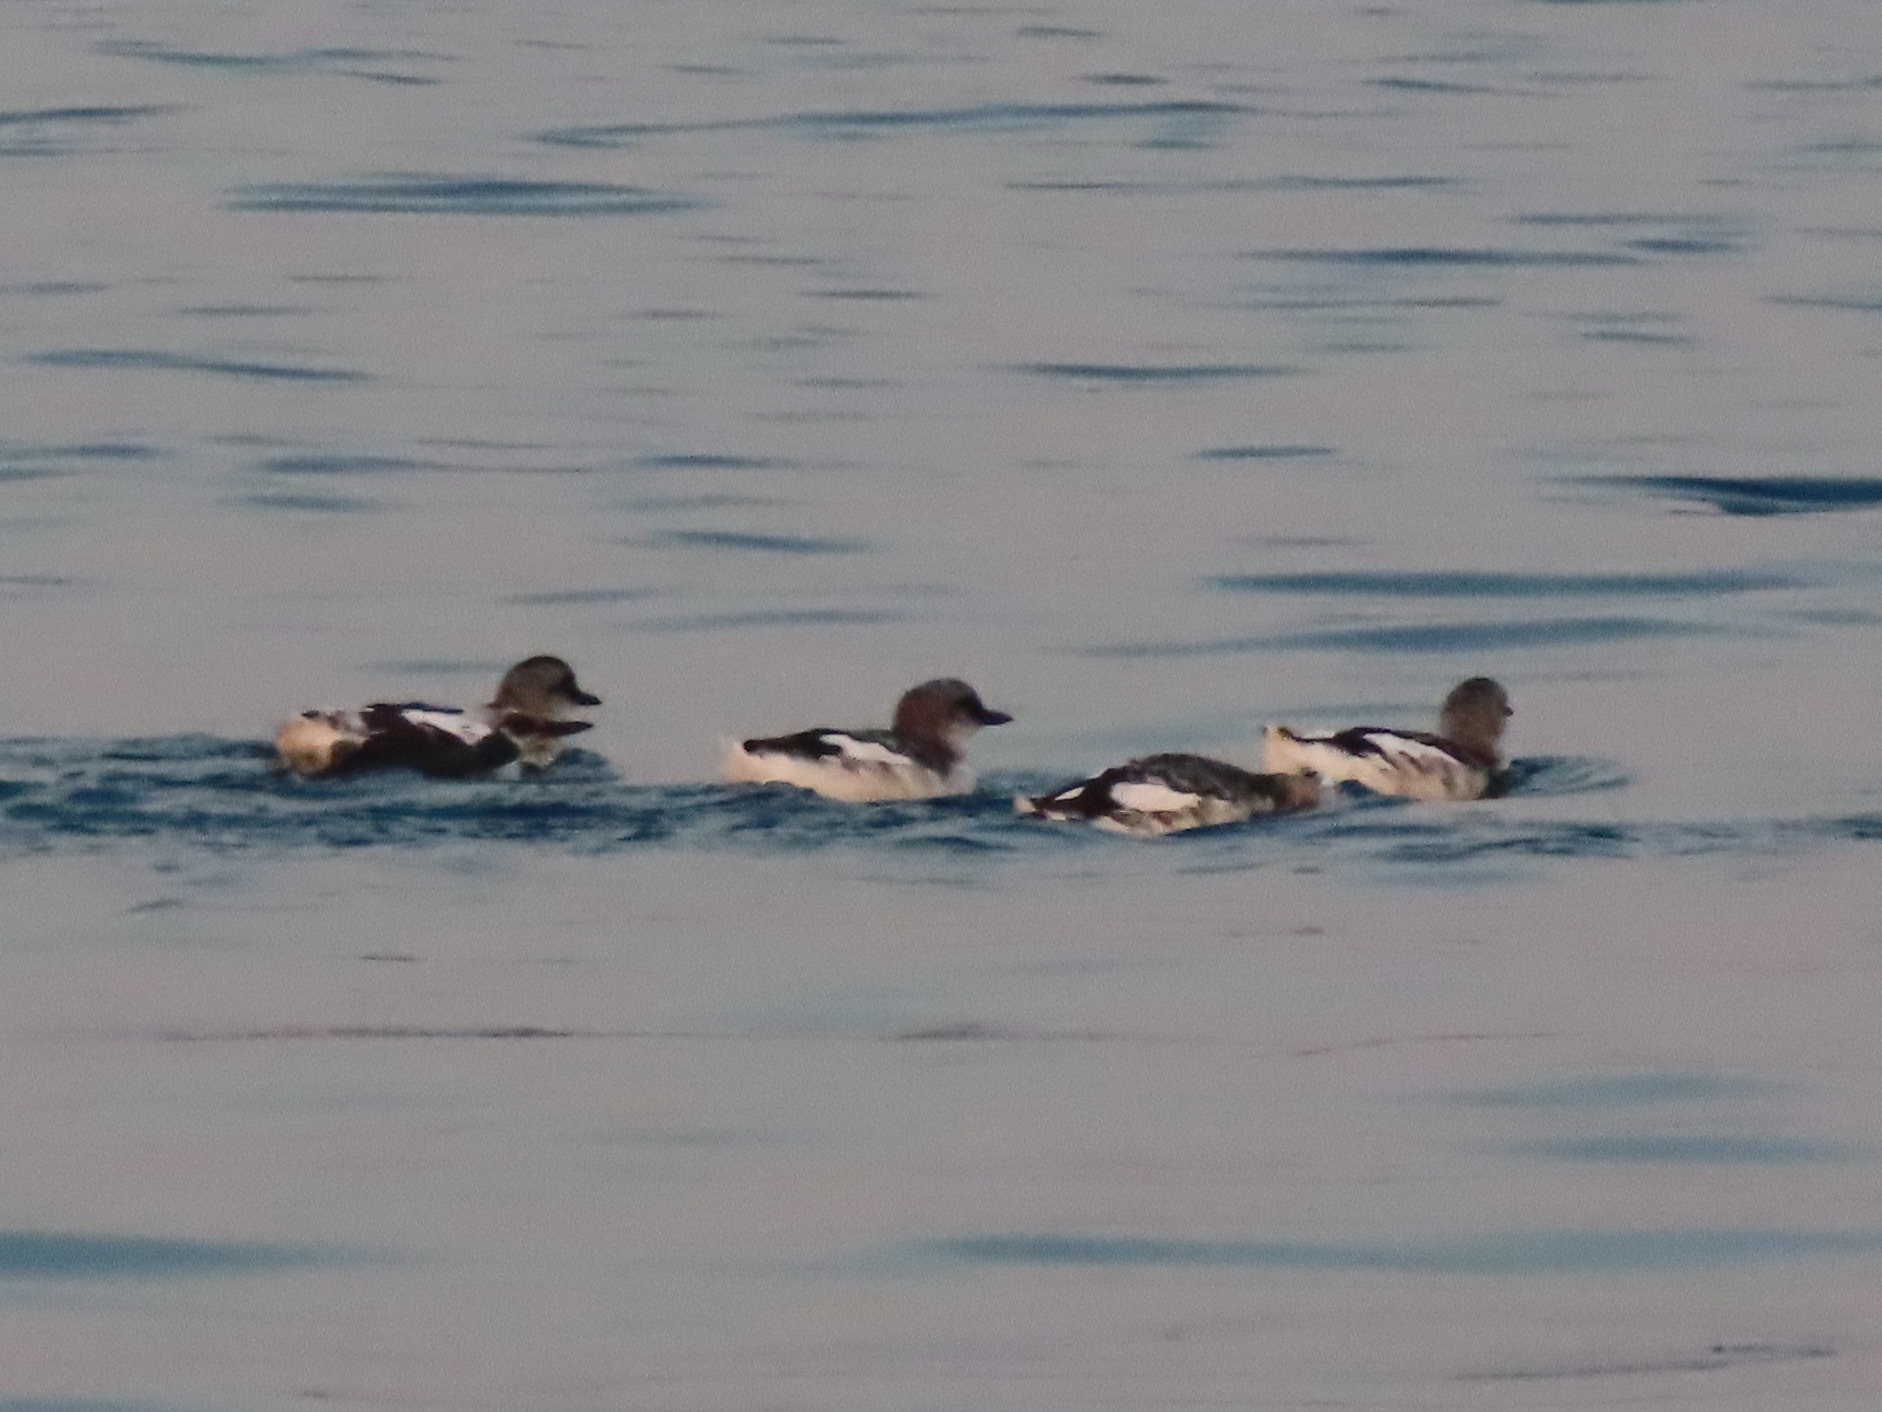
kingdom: Animalia
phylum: Chordata
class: Aves
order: Charadriiformes
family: Alcidae
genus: Cepphus
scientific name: Cepphus columba
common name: Pigeon guillemot
